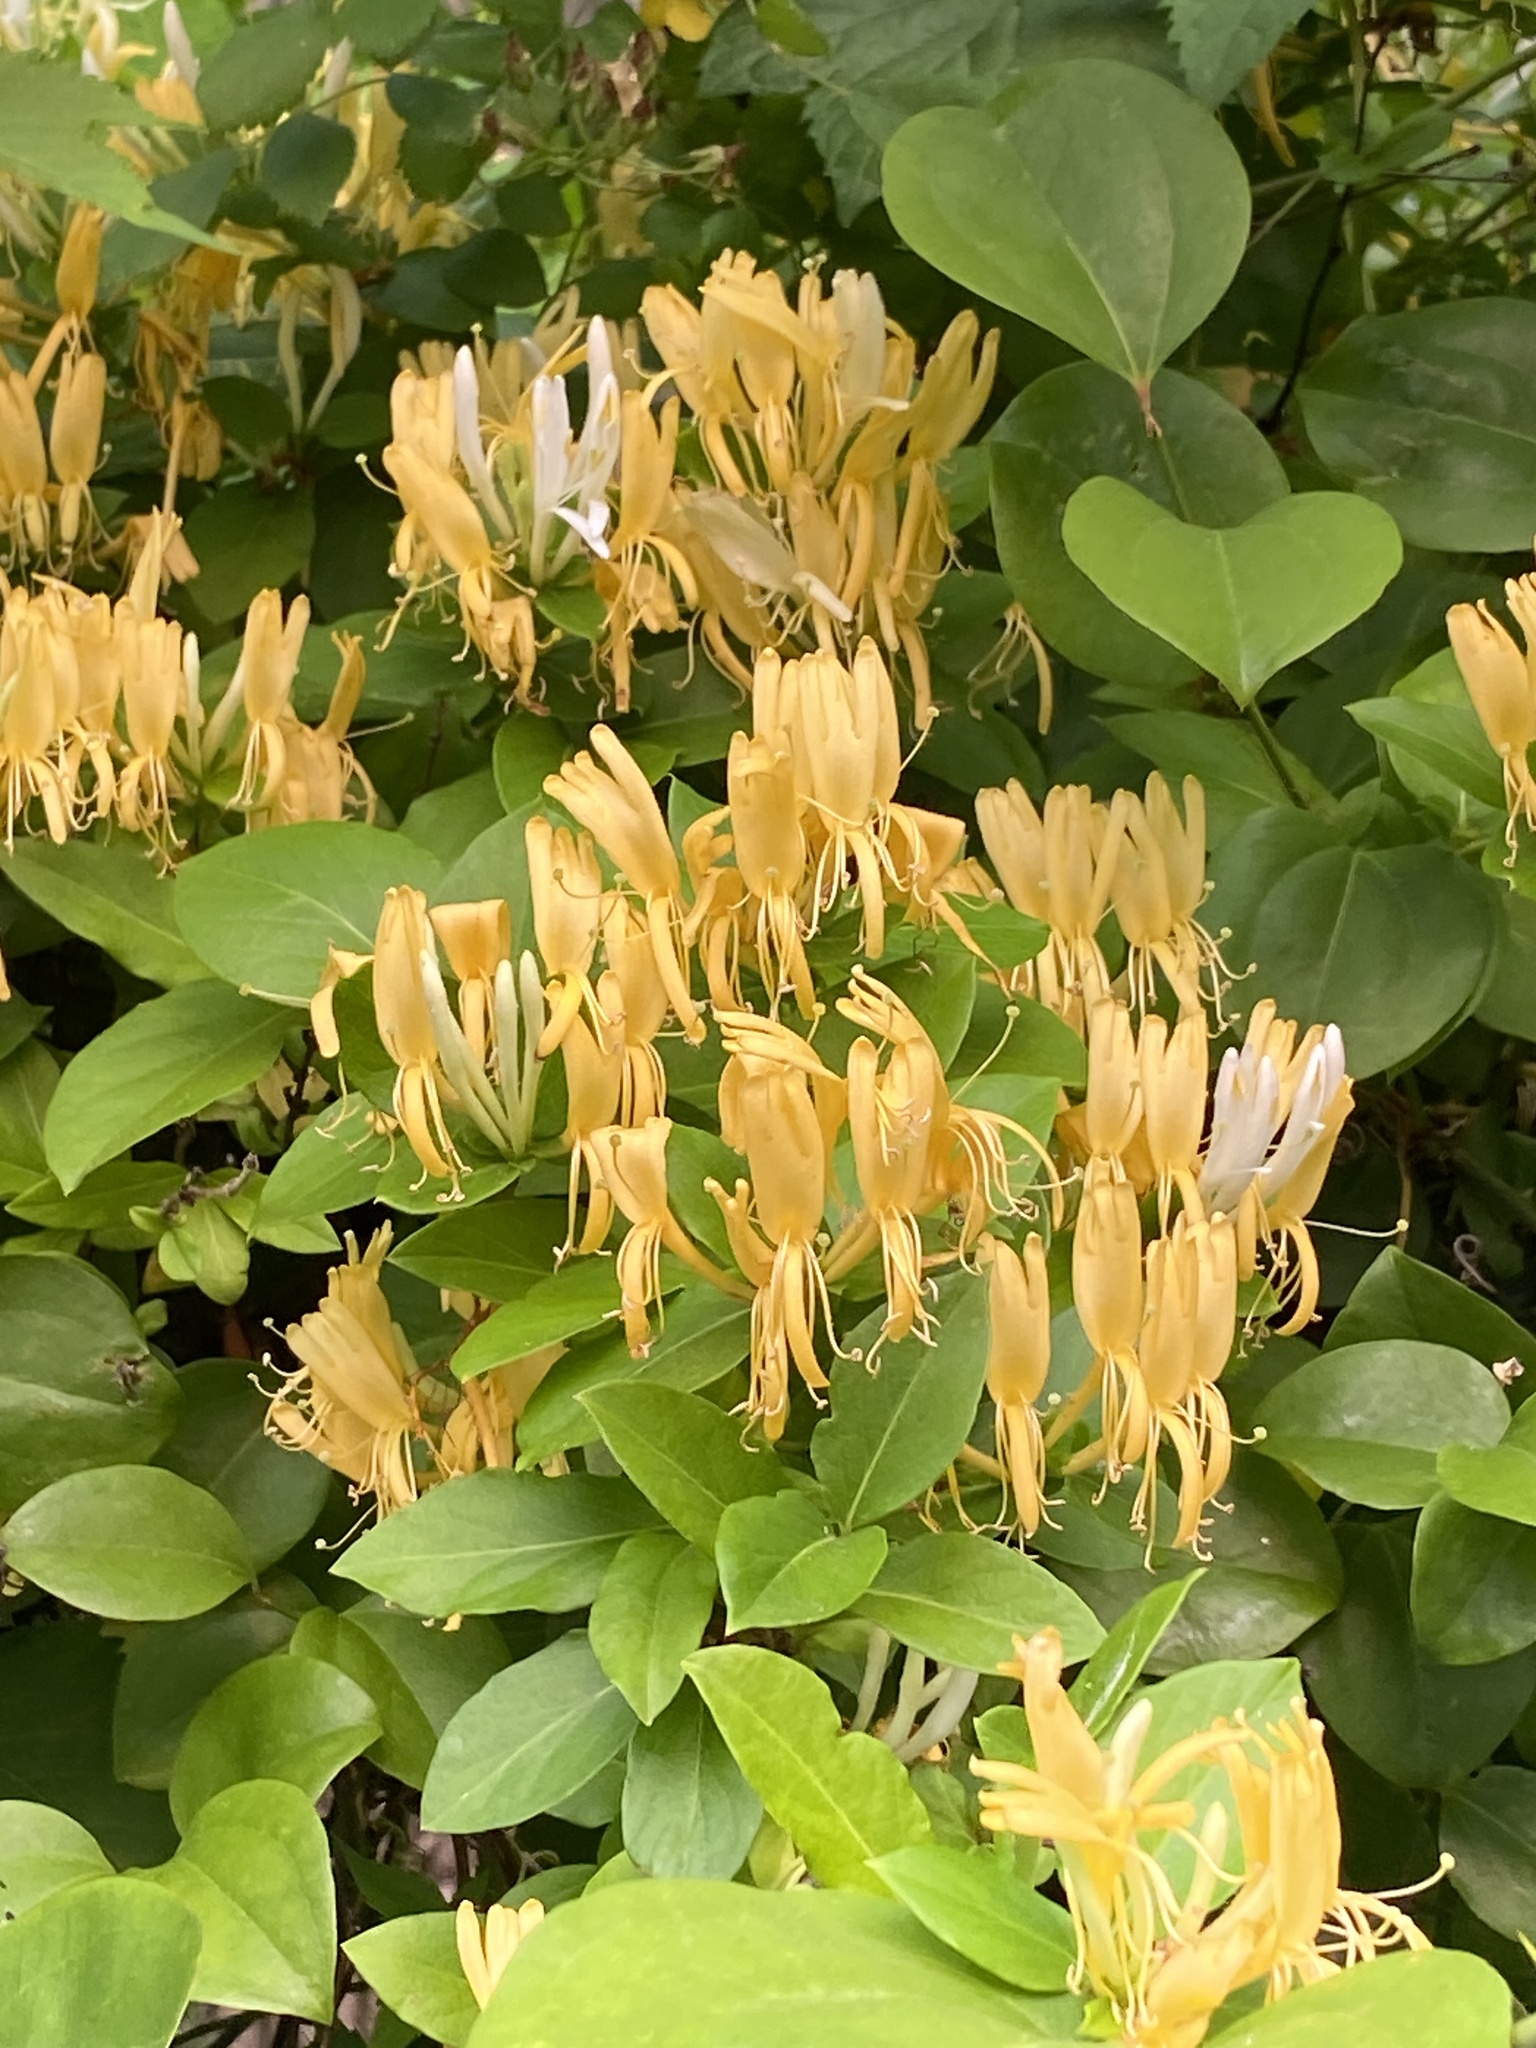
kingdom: Plantae
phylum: Tracheophyta
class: Magnoliopsida
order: Dipsacales
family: Caprifoliaceae
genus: Lonicera
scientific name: Lonicera japonica
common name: Japanese honeysuckle
